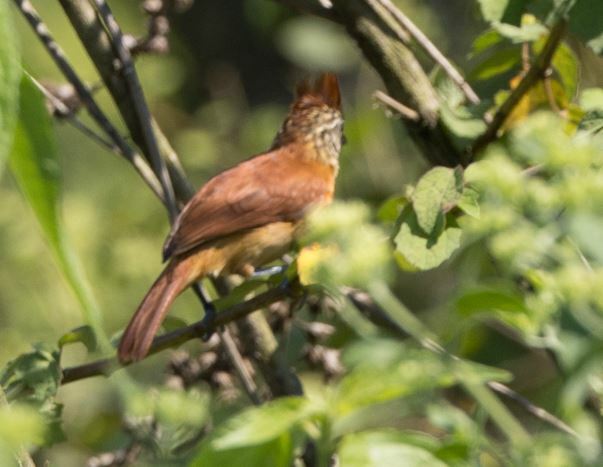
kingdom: Animalia
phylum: Chordata
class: Aves
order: Passeriformes
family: Thamnophilidae
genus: Thamnophilus
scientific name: Thamnophilus doliatus
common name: Barred antshrike
